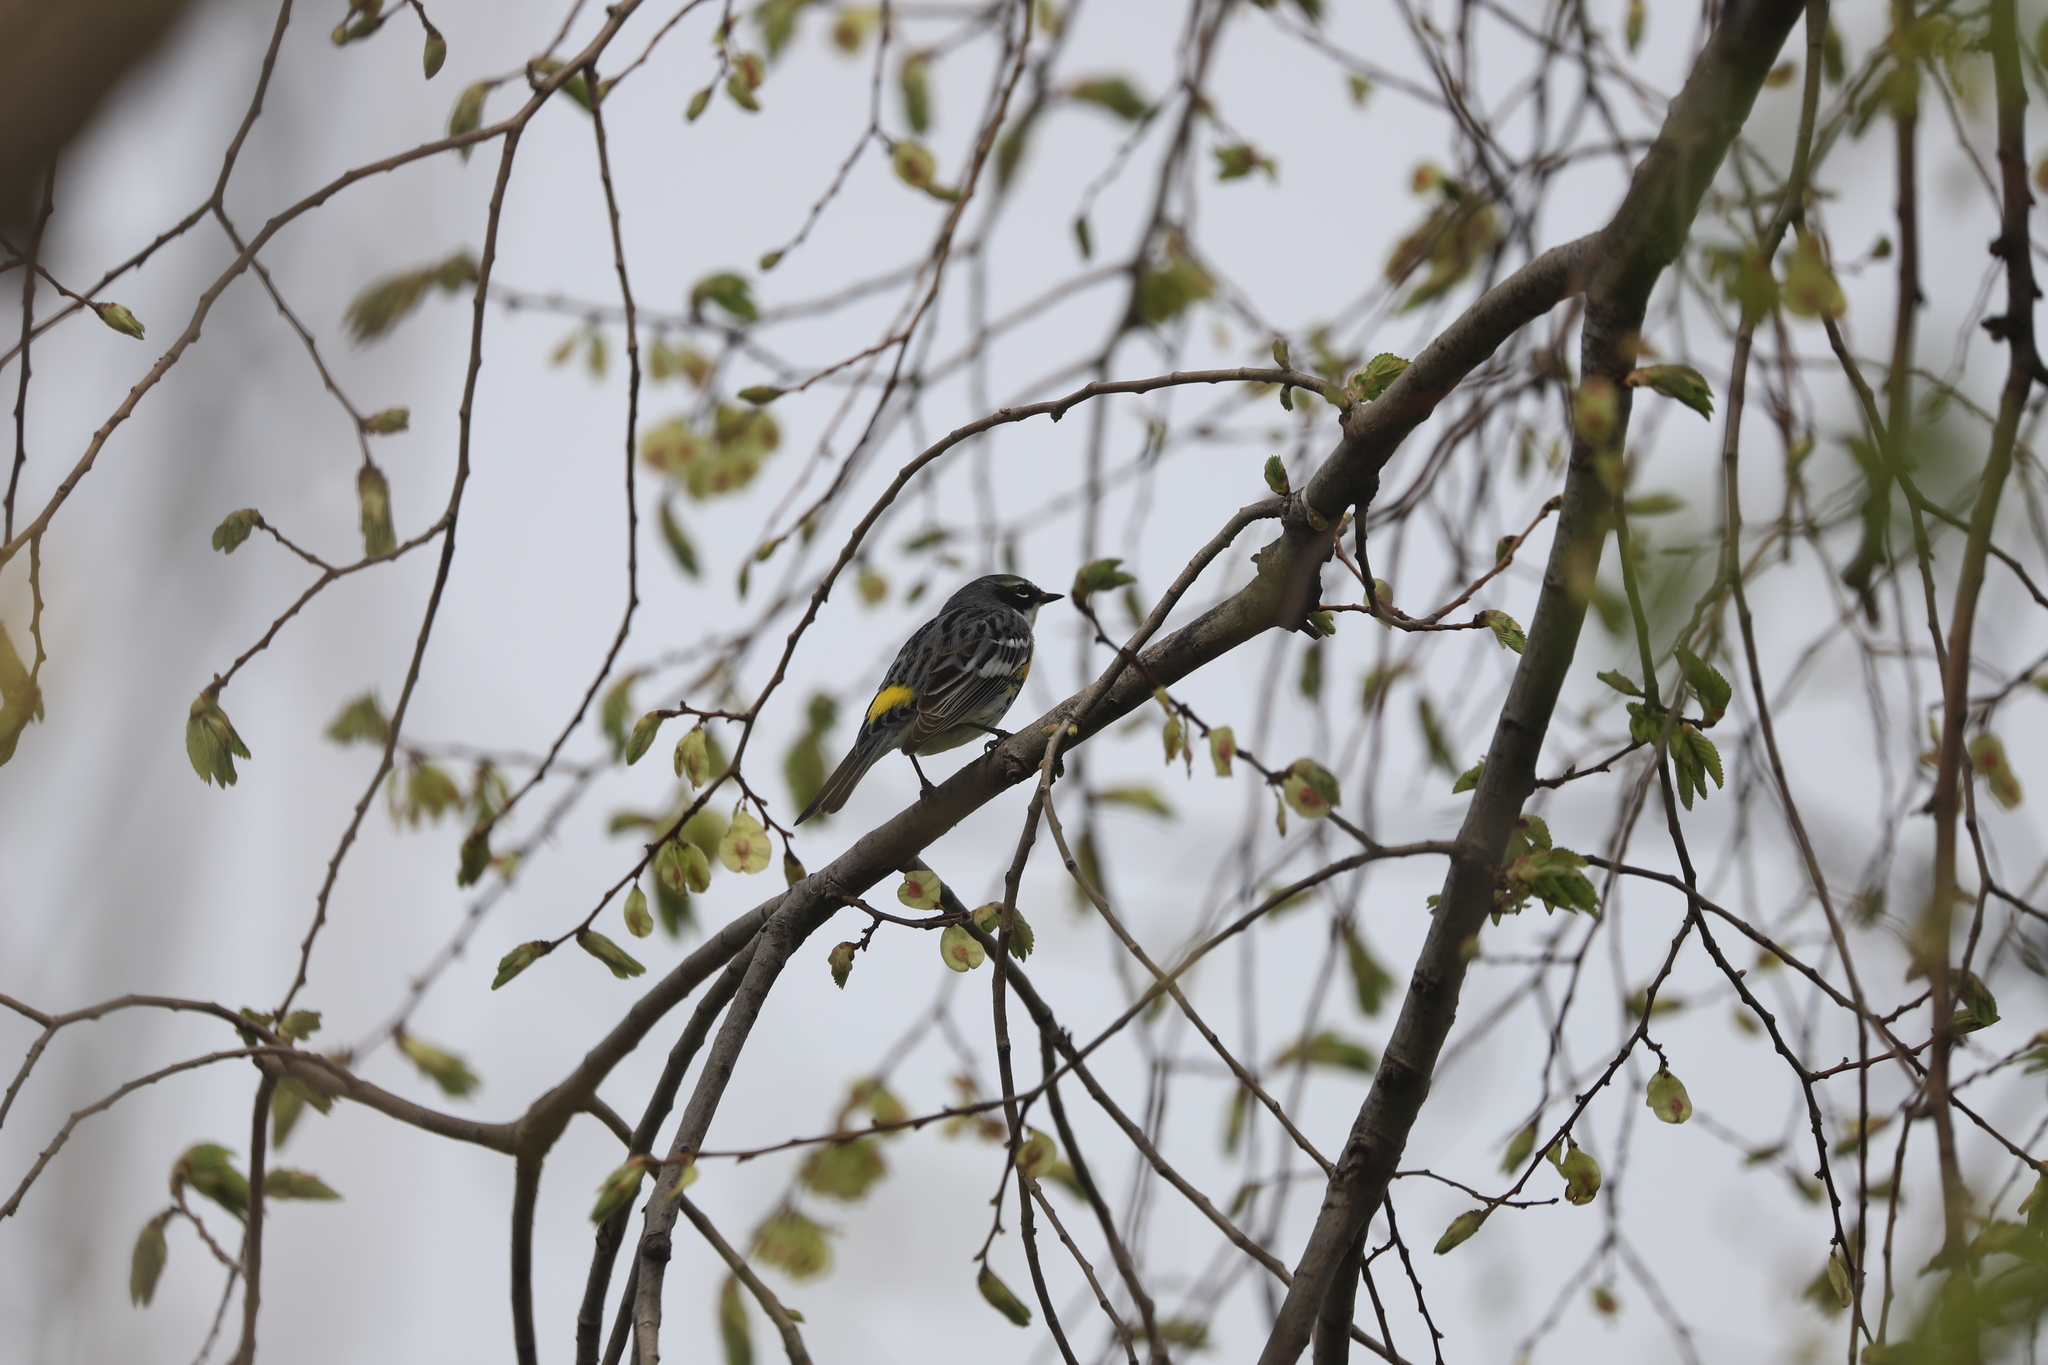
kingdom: Animalia
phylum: Chordata
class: Aves
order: Passeriformes
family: Parulidae
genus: Setophaga
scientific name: Setophaga coronata
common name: Myrtle warbler
